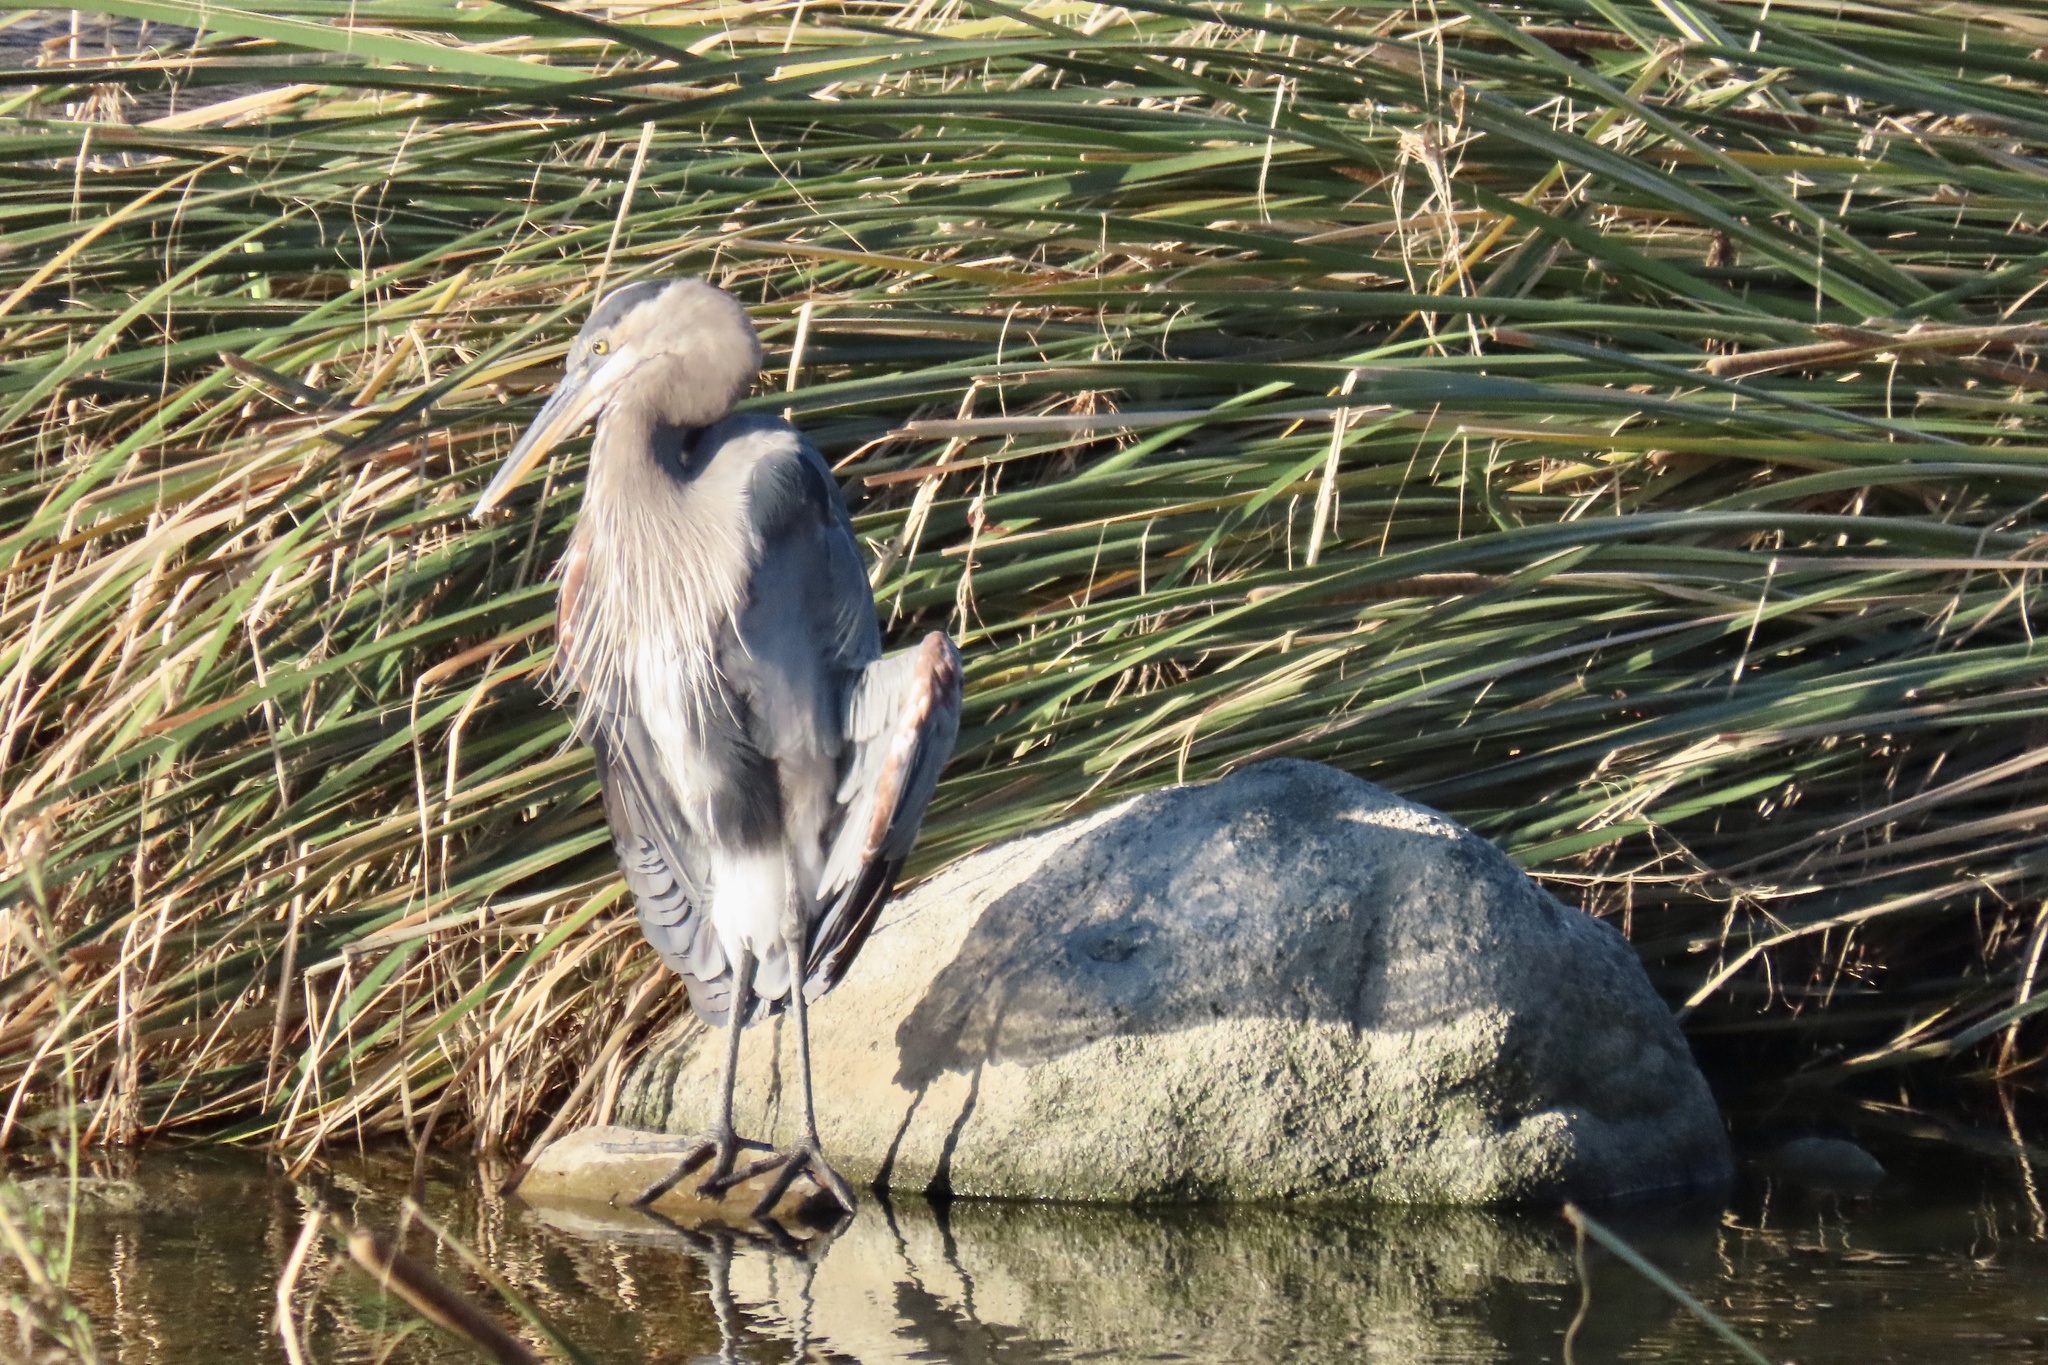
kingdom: Animalia
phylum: Chordata
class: Aves
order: Pelecaniformes
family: Ardeidae
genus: Ardea
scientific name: Ardea herodias
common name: Great blue heron
